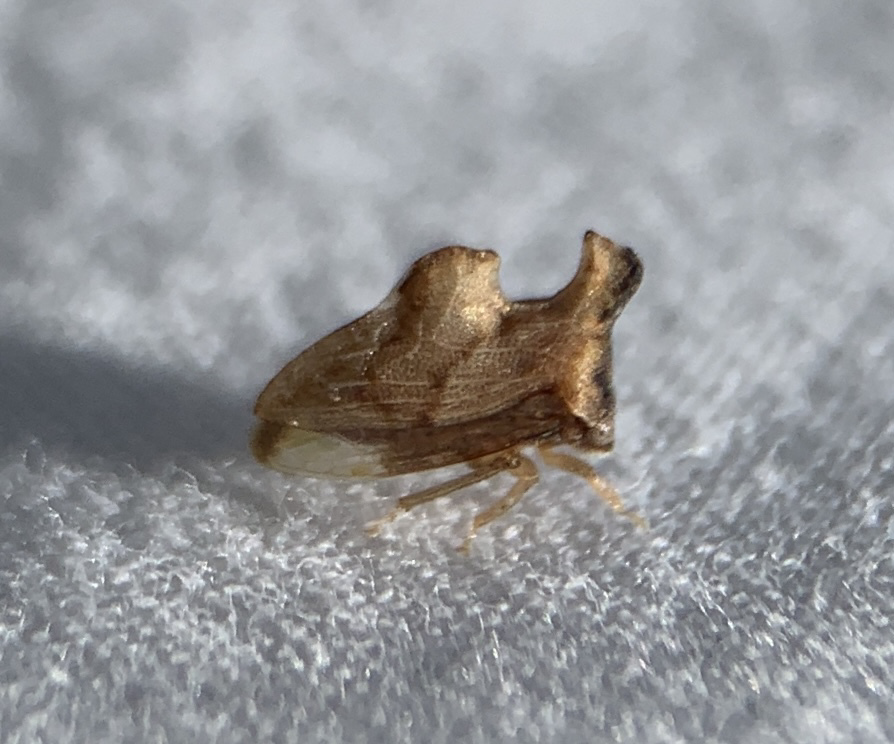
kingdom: Animalia
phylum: Arthropoda
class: Insecta
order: Hemiptera
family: Membracidae
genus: Entylia
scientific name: Entylia carinata
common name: Keeled treehopper
